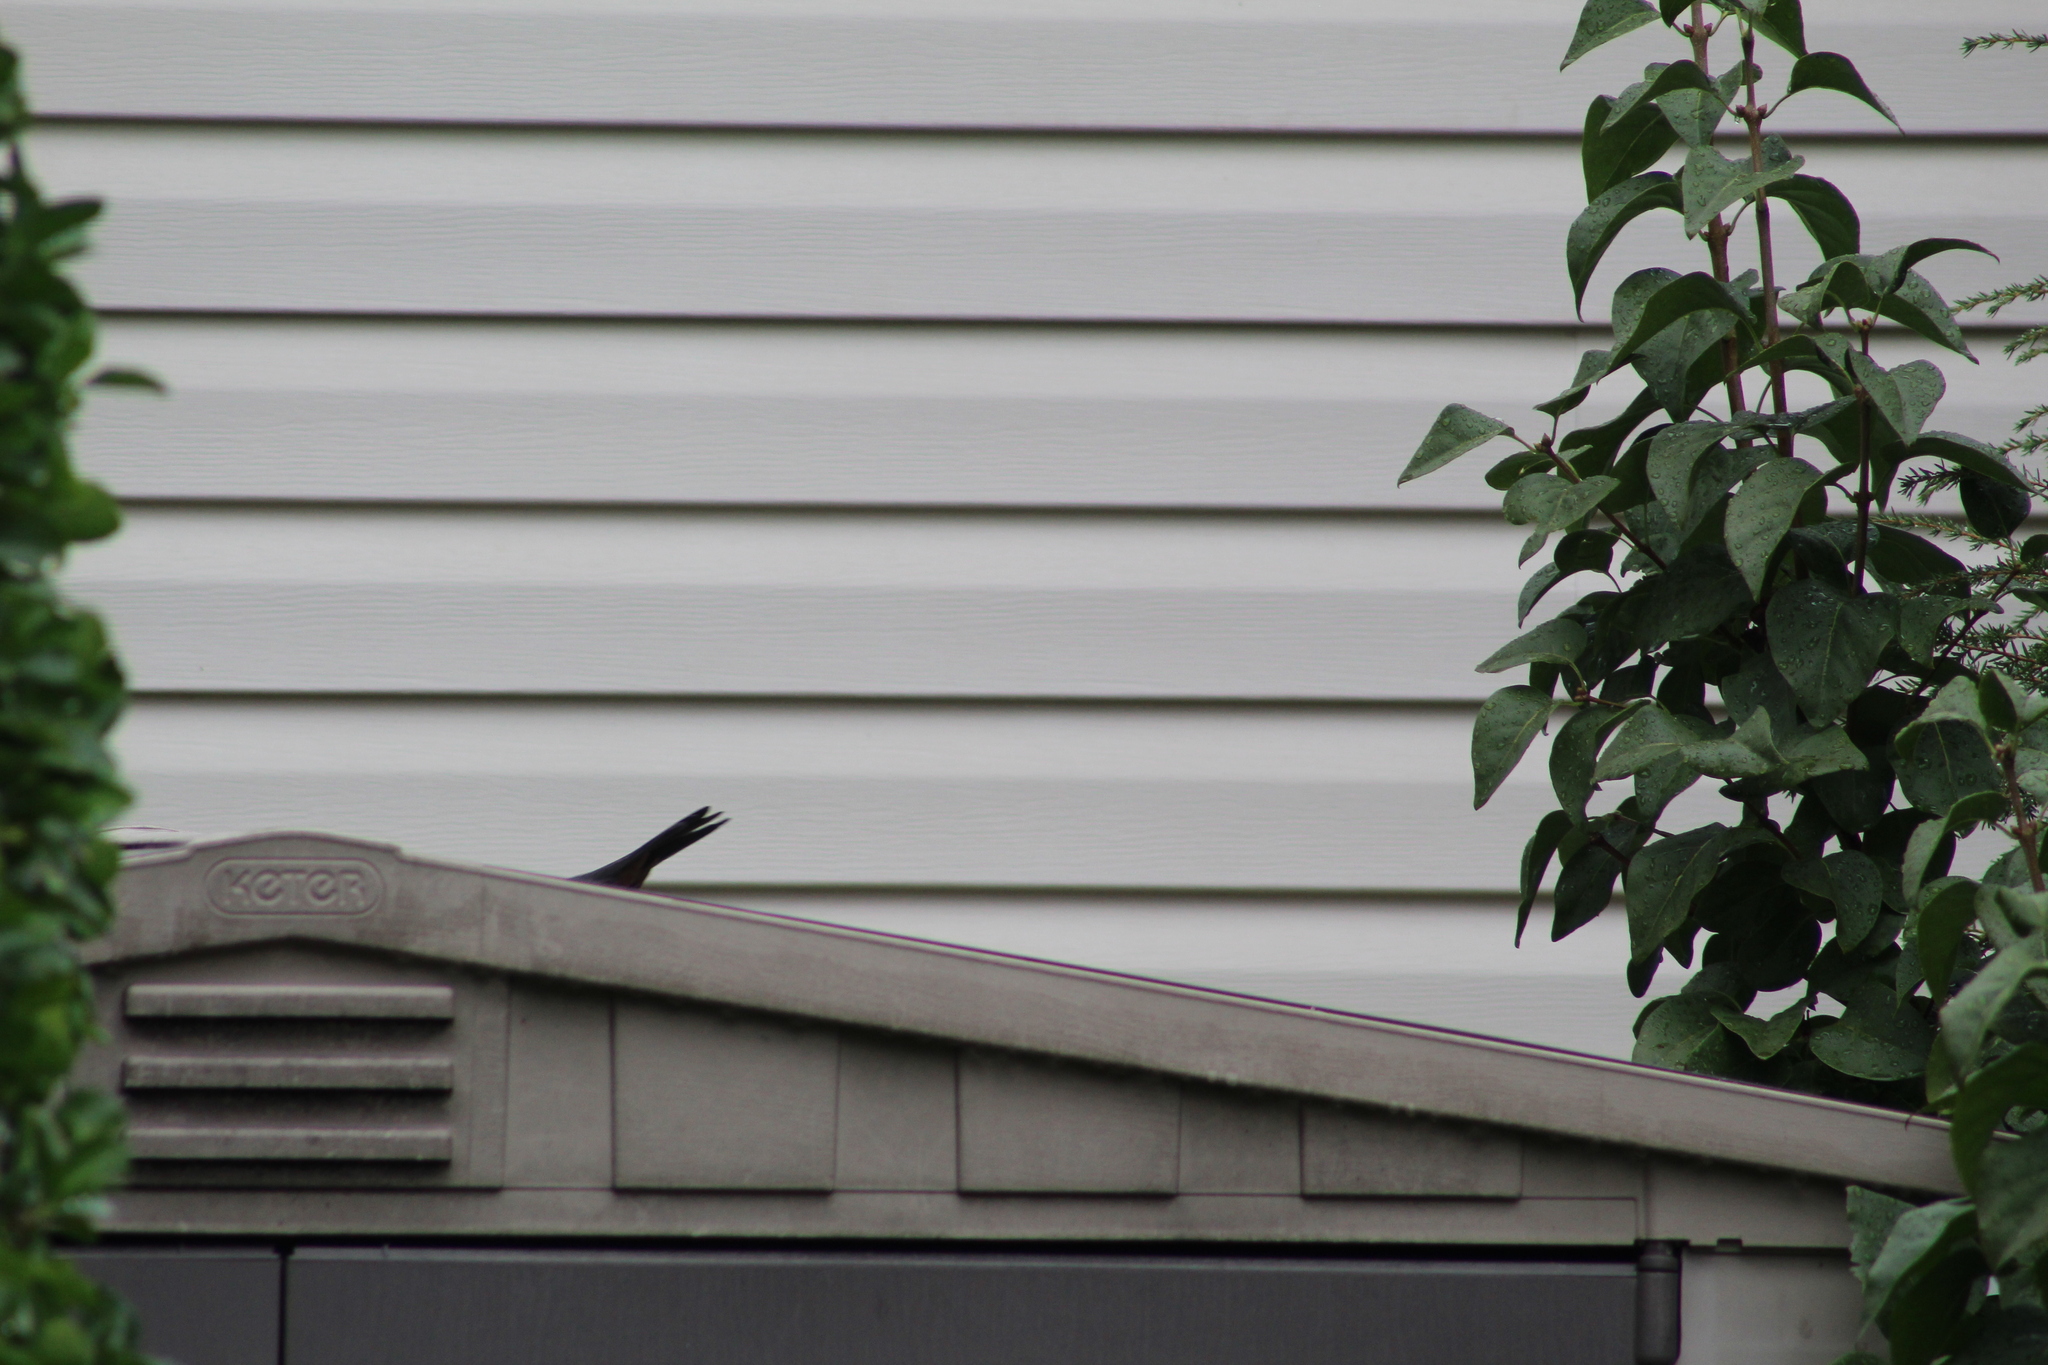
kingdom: Animalia
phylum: Chordata
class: Aves
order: Passeriformes
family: Mimidae
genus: Dumetella
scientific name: Dumetella carolinensis
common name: Gray catbird
